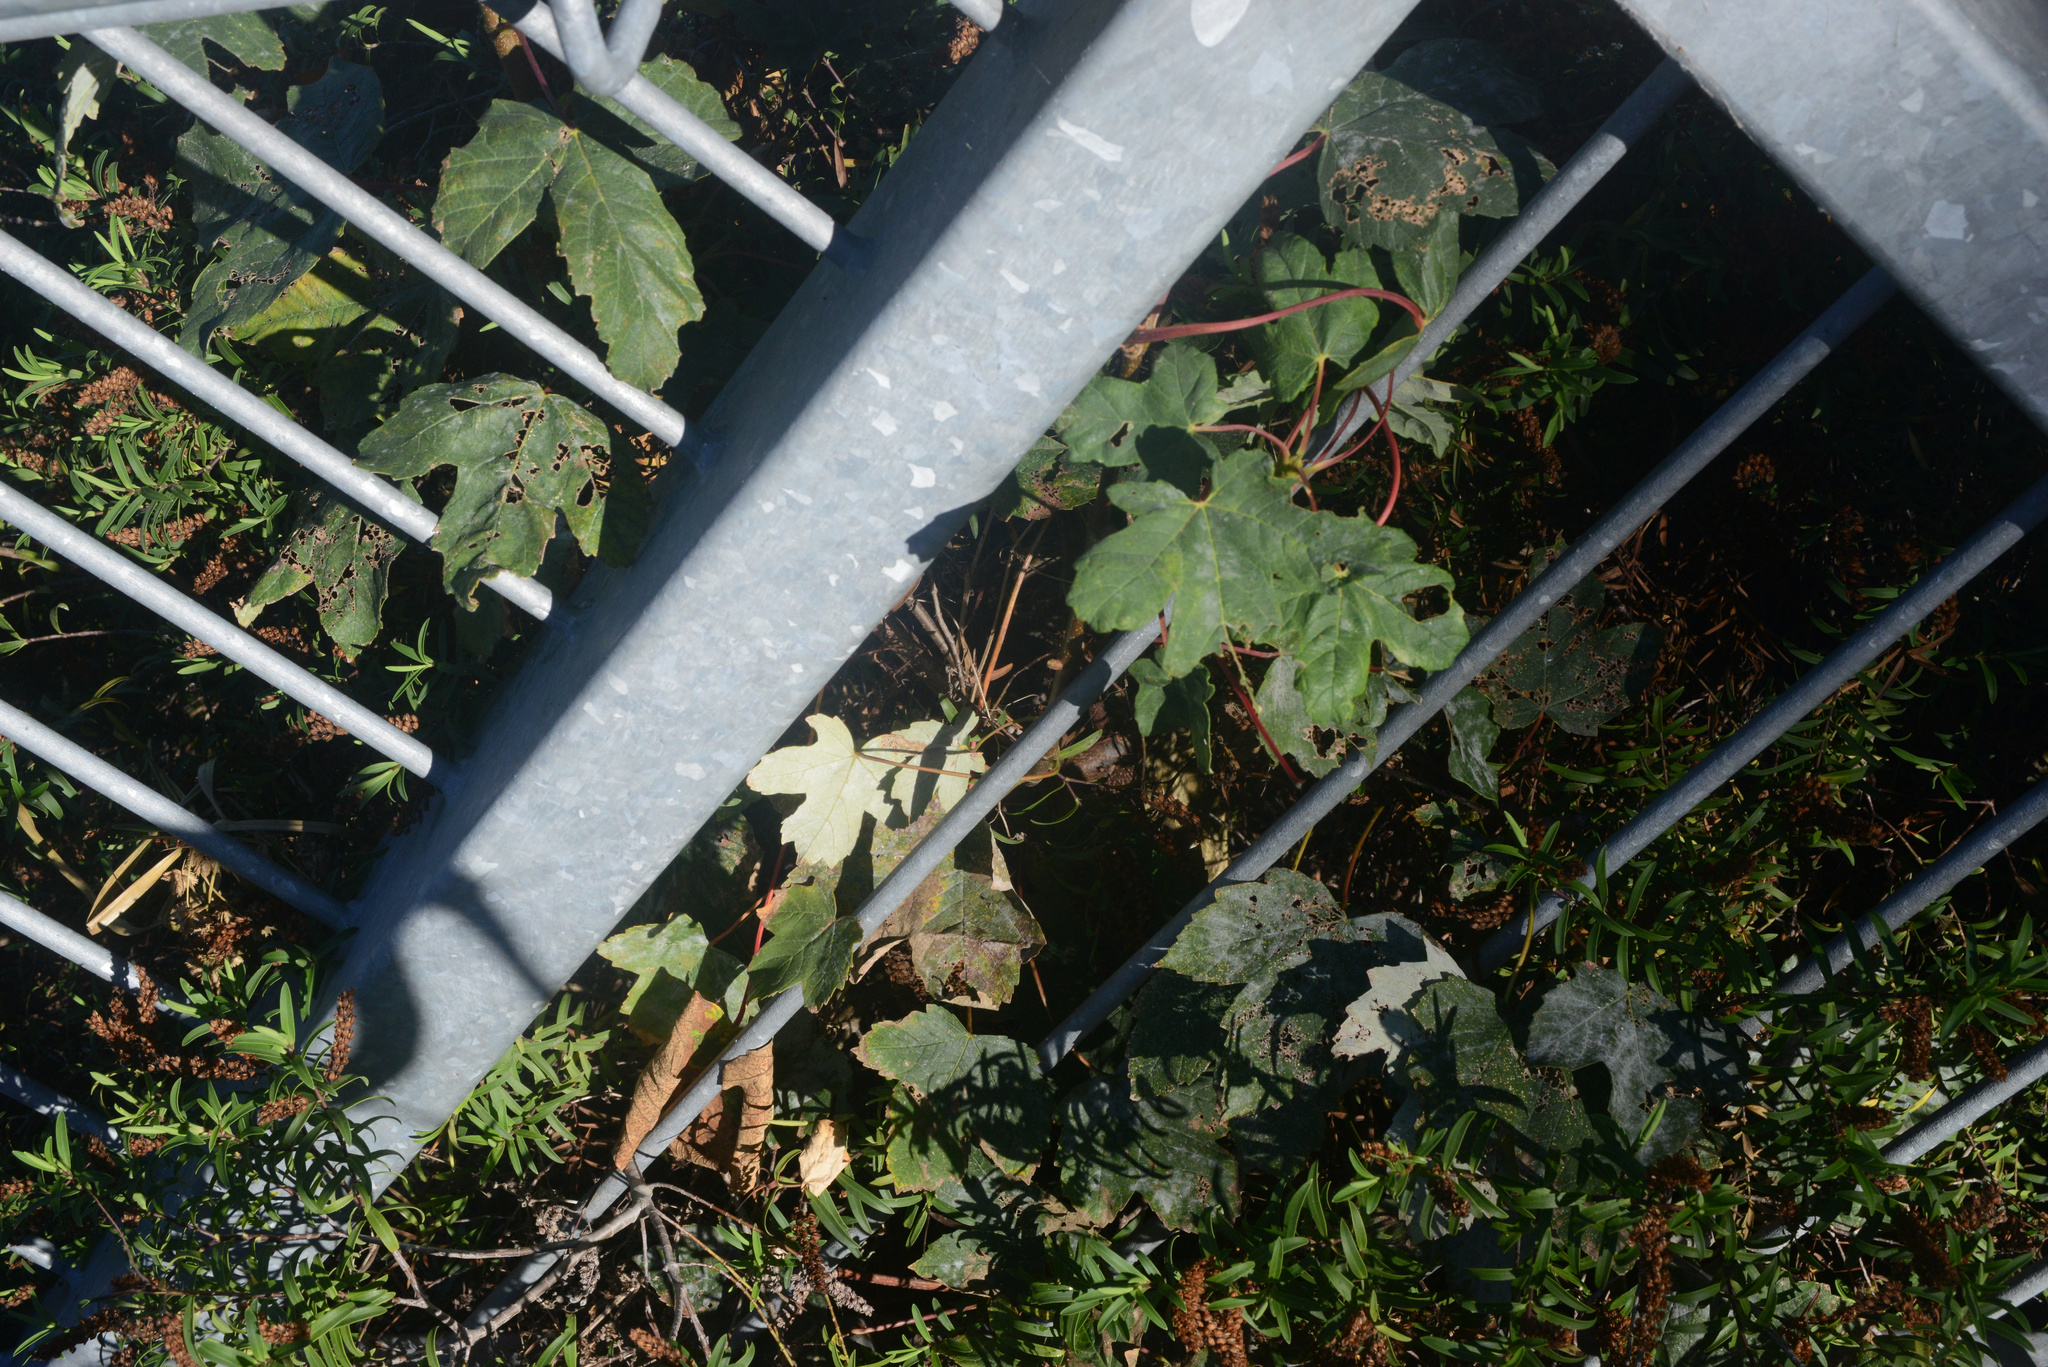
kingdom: Plantae
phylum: Tracheophyta
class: Magnoliopsida
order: Sapindales
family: Sapindaceae
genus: Acer
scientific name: Acer pseudoplatanus
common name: Sycamore
